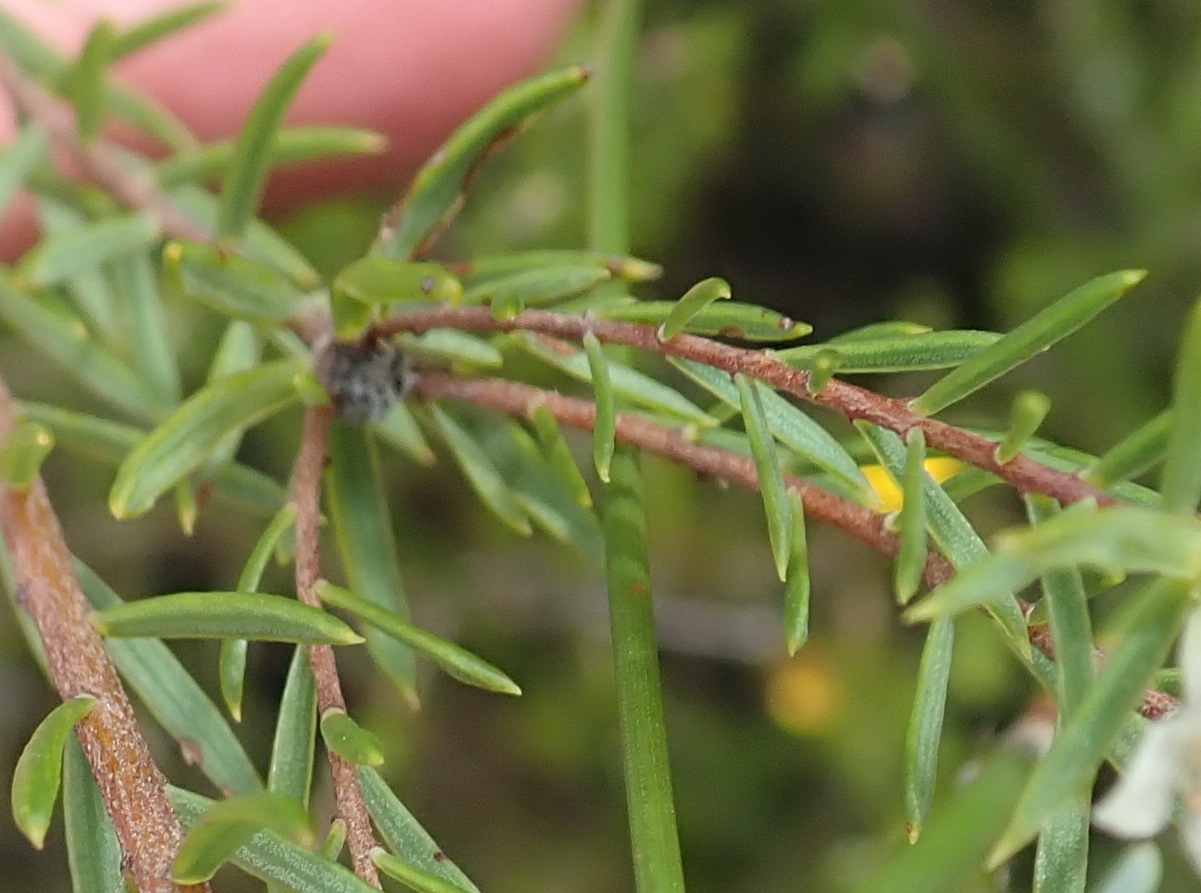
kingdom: Plantae
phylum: Tracheophyta
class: Magnoliopsida
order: Malvales
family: Thymelaeaceae
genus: Lachnaea
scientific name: Lachnaea diosmoides
